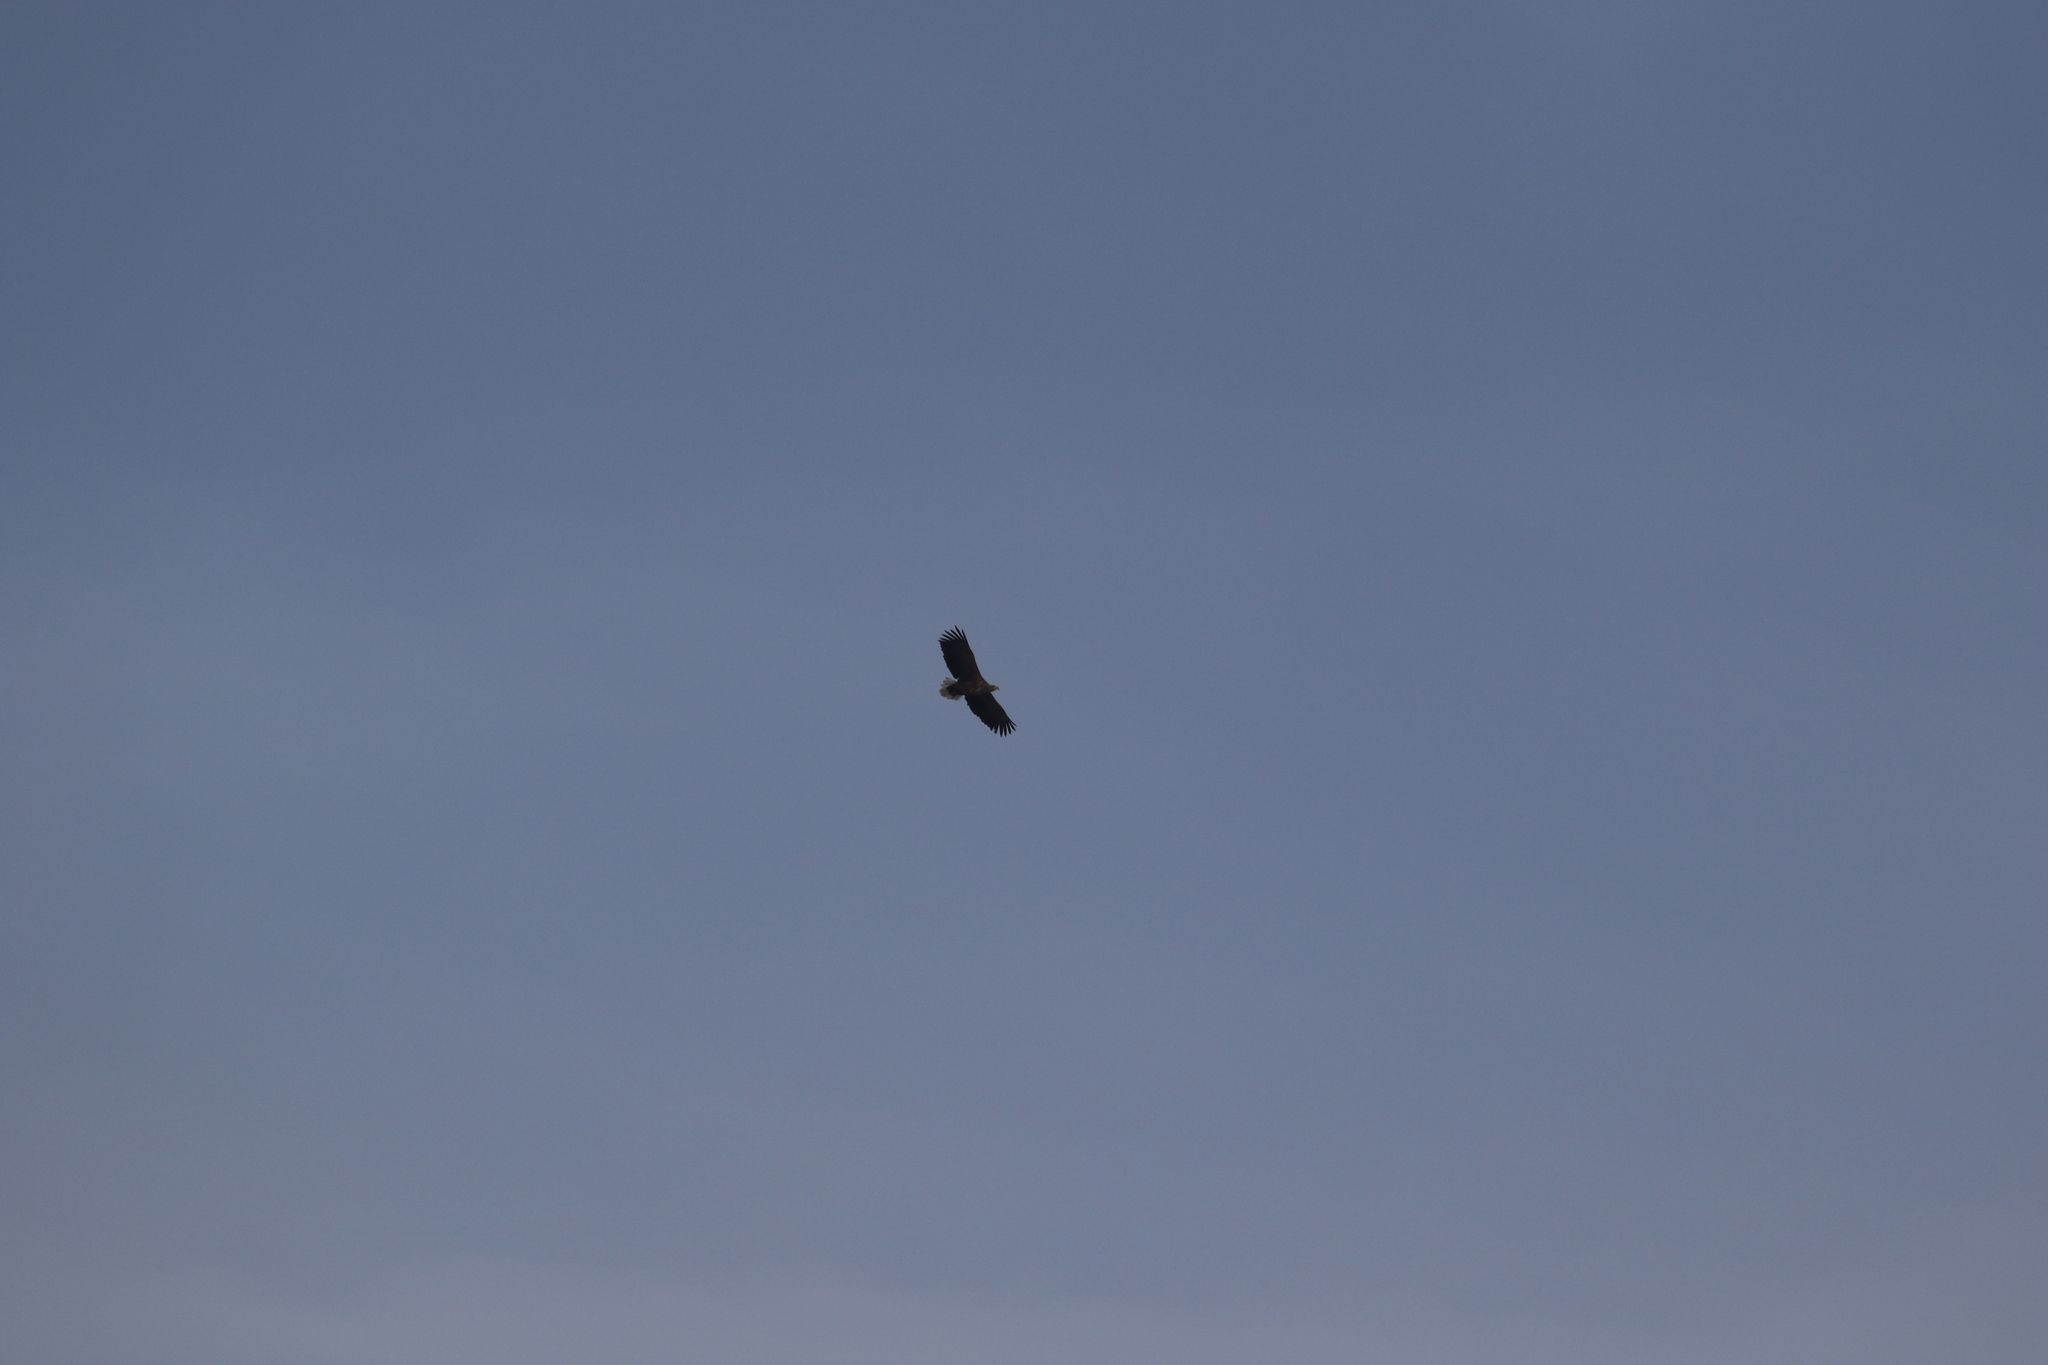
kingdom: Animalia
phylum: Chordata
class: Aves
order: Accipitriformes
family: Accipitridae
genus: Haliaeetus
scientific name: Haliaeetus albicilla
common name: White-tailed eagle
